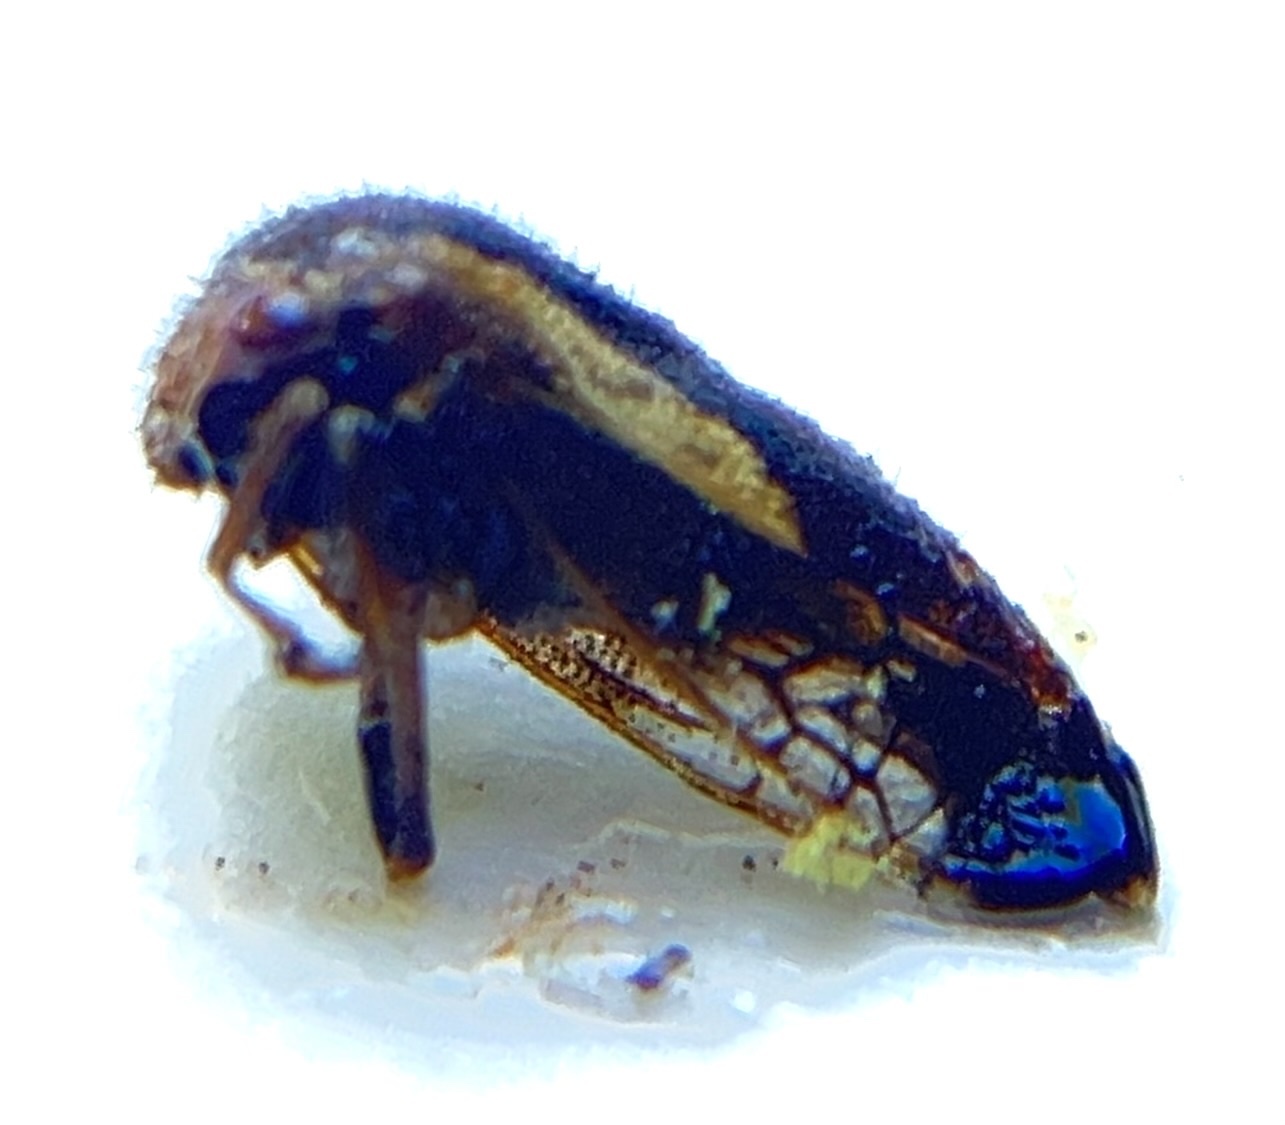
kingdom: Animalia
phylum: Arthropoda
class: Insecta
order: Hemiptera
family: Membracidae
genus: Ophiderma
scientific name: Ophiderma flavicephala
